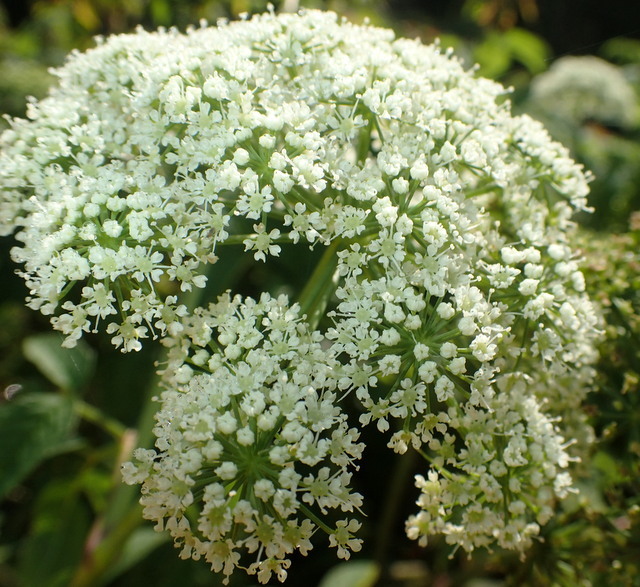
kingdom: Plantae
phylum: Tracheophyta
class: Magnoliopsida
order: Apiales
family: Apiaceae
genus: Cicuta
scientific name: Cicuta maculata
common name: Spotted cowbane
